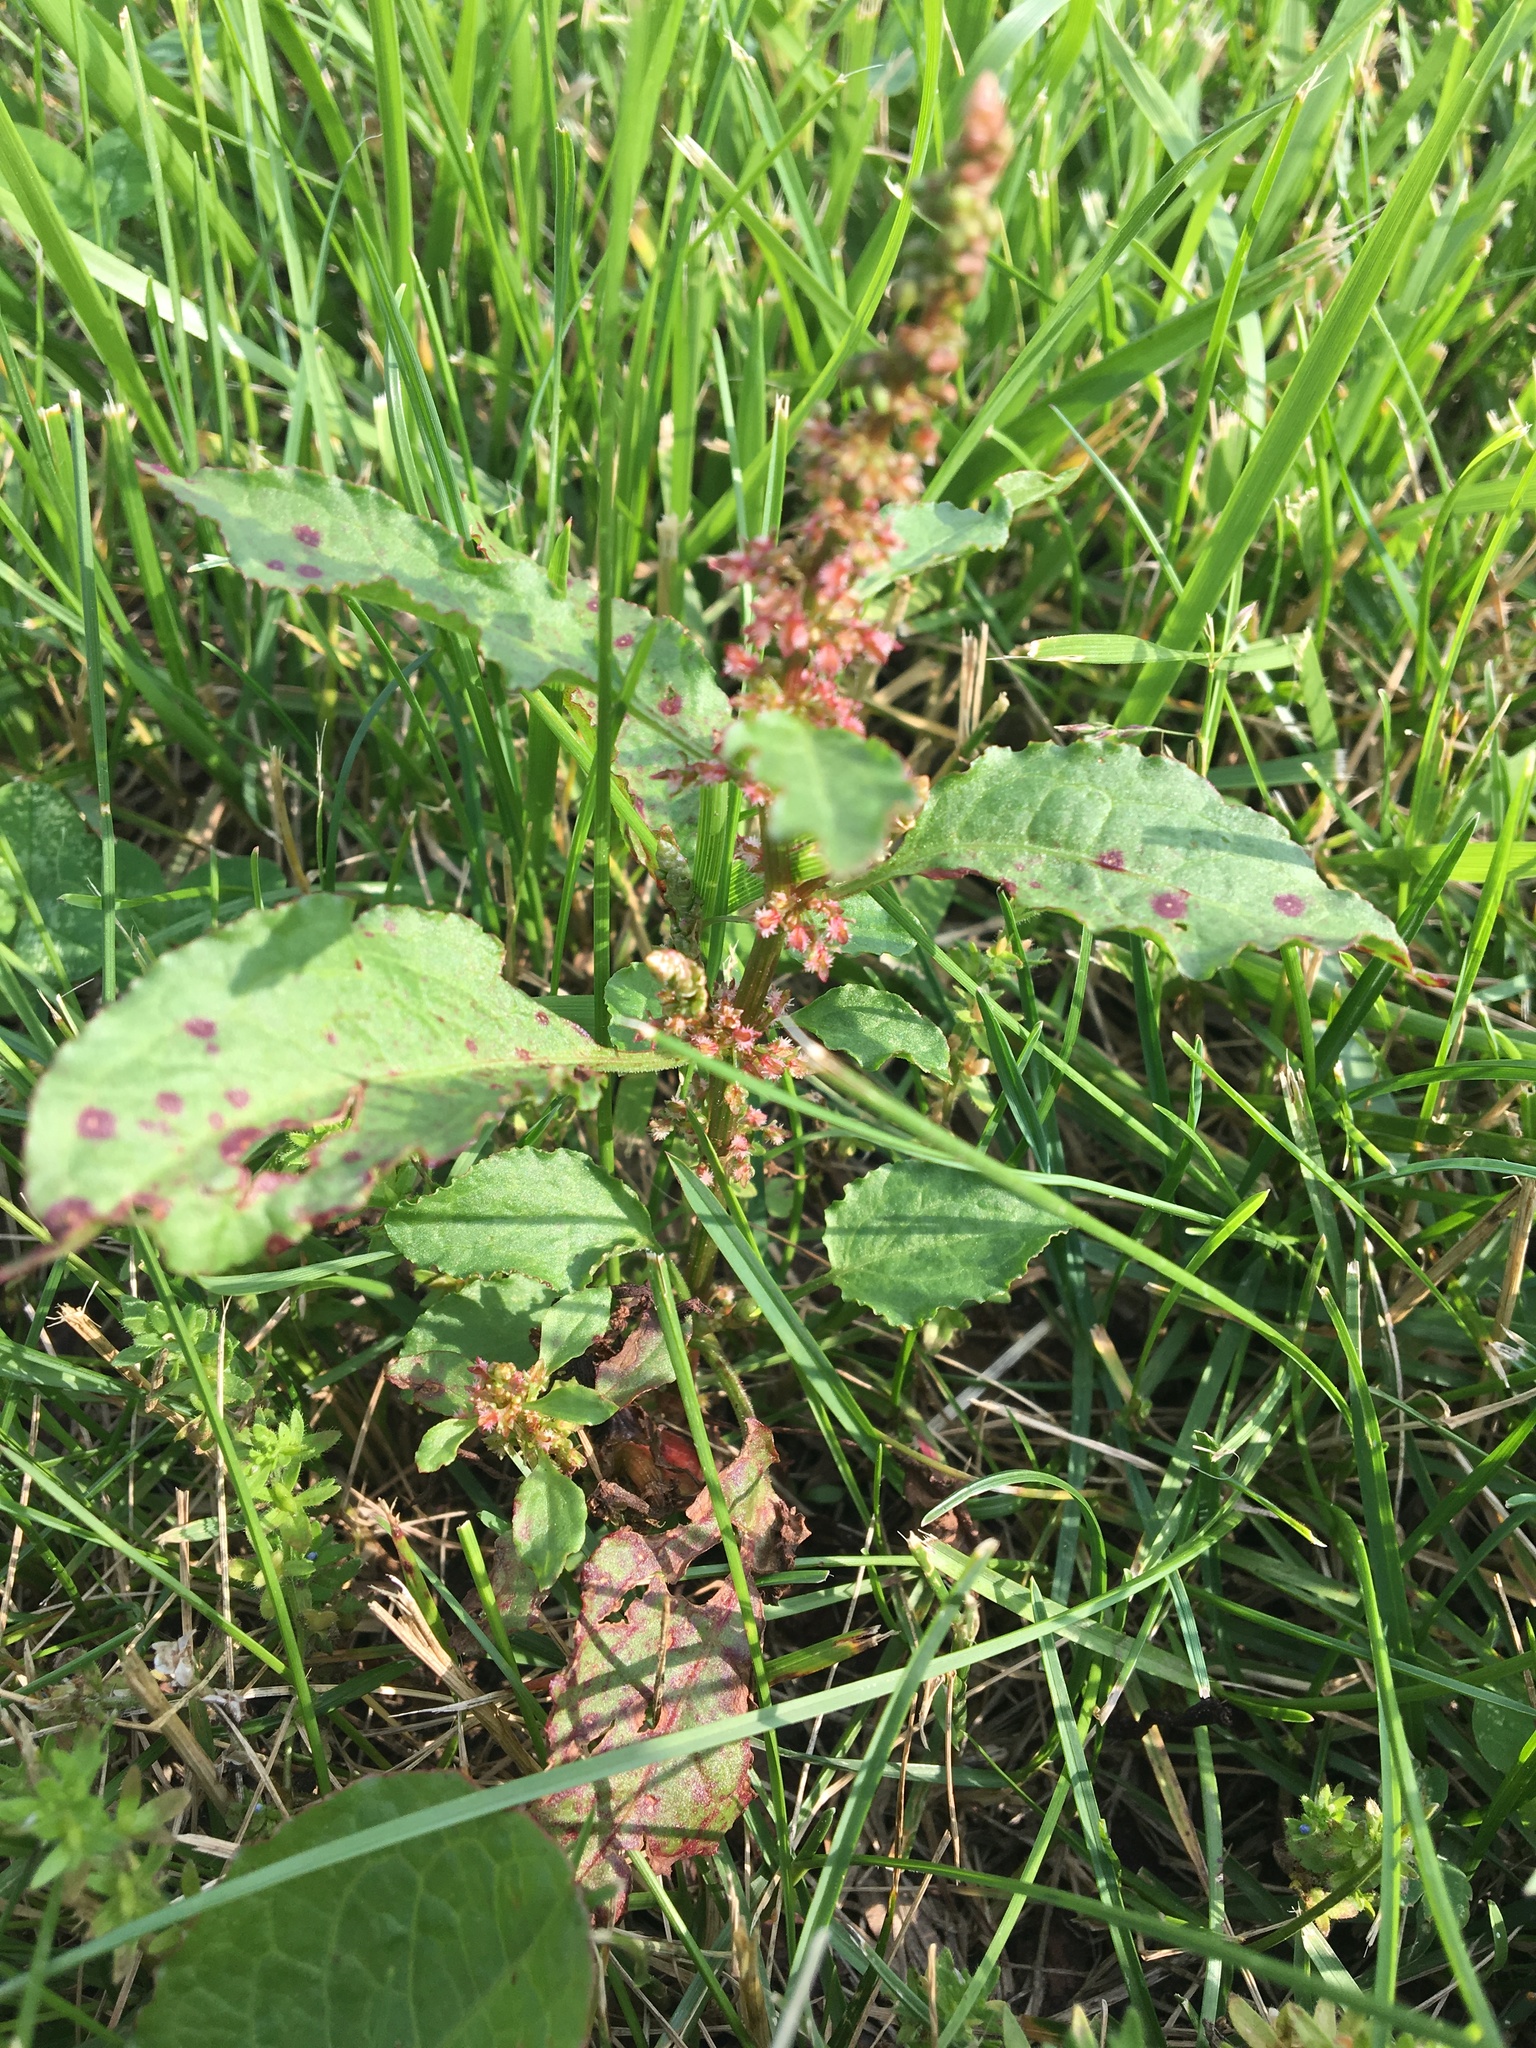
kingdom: Plantae
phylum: Tracheophyta
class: Magnoliopsida
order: Caryophyllales
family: Polygonaceae
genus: Rumex
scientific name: Rumex obtusifolius
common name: Bitter dock
